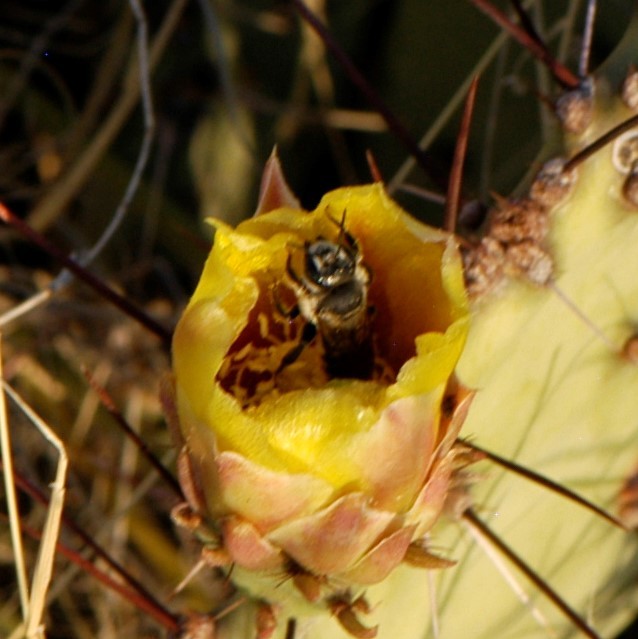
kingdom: Animalia
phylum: Arthropoda
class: Insecta
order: Hymenoptera
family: Megachilidae
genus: Lithurgopsis
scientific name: Lithurgopsis apicalis
